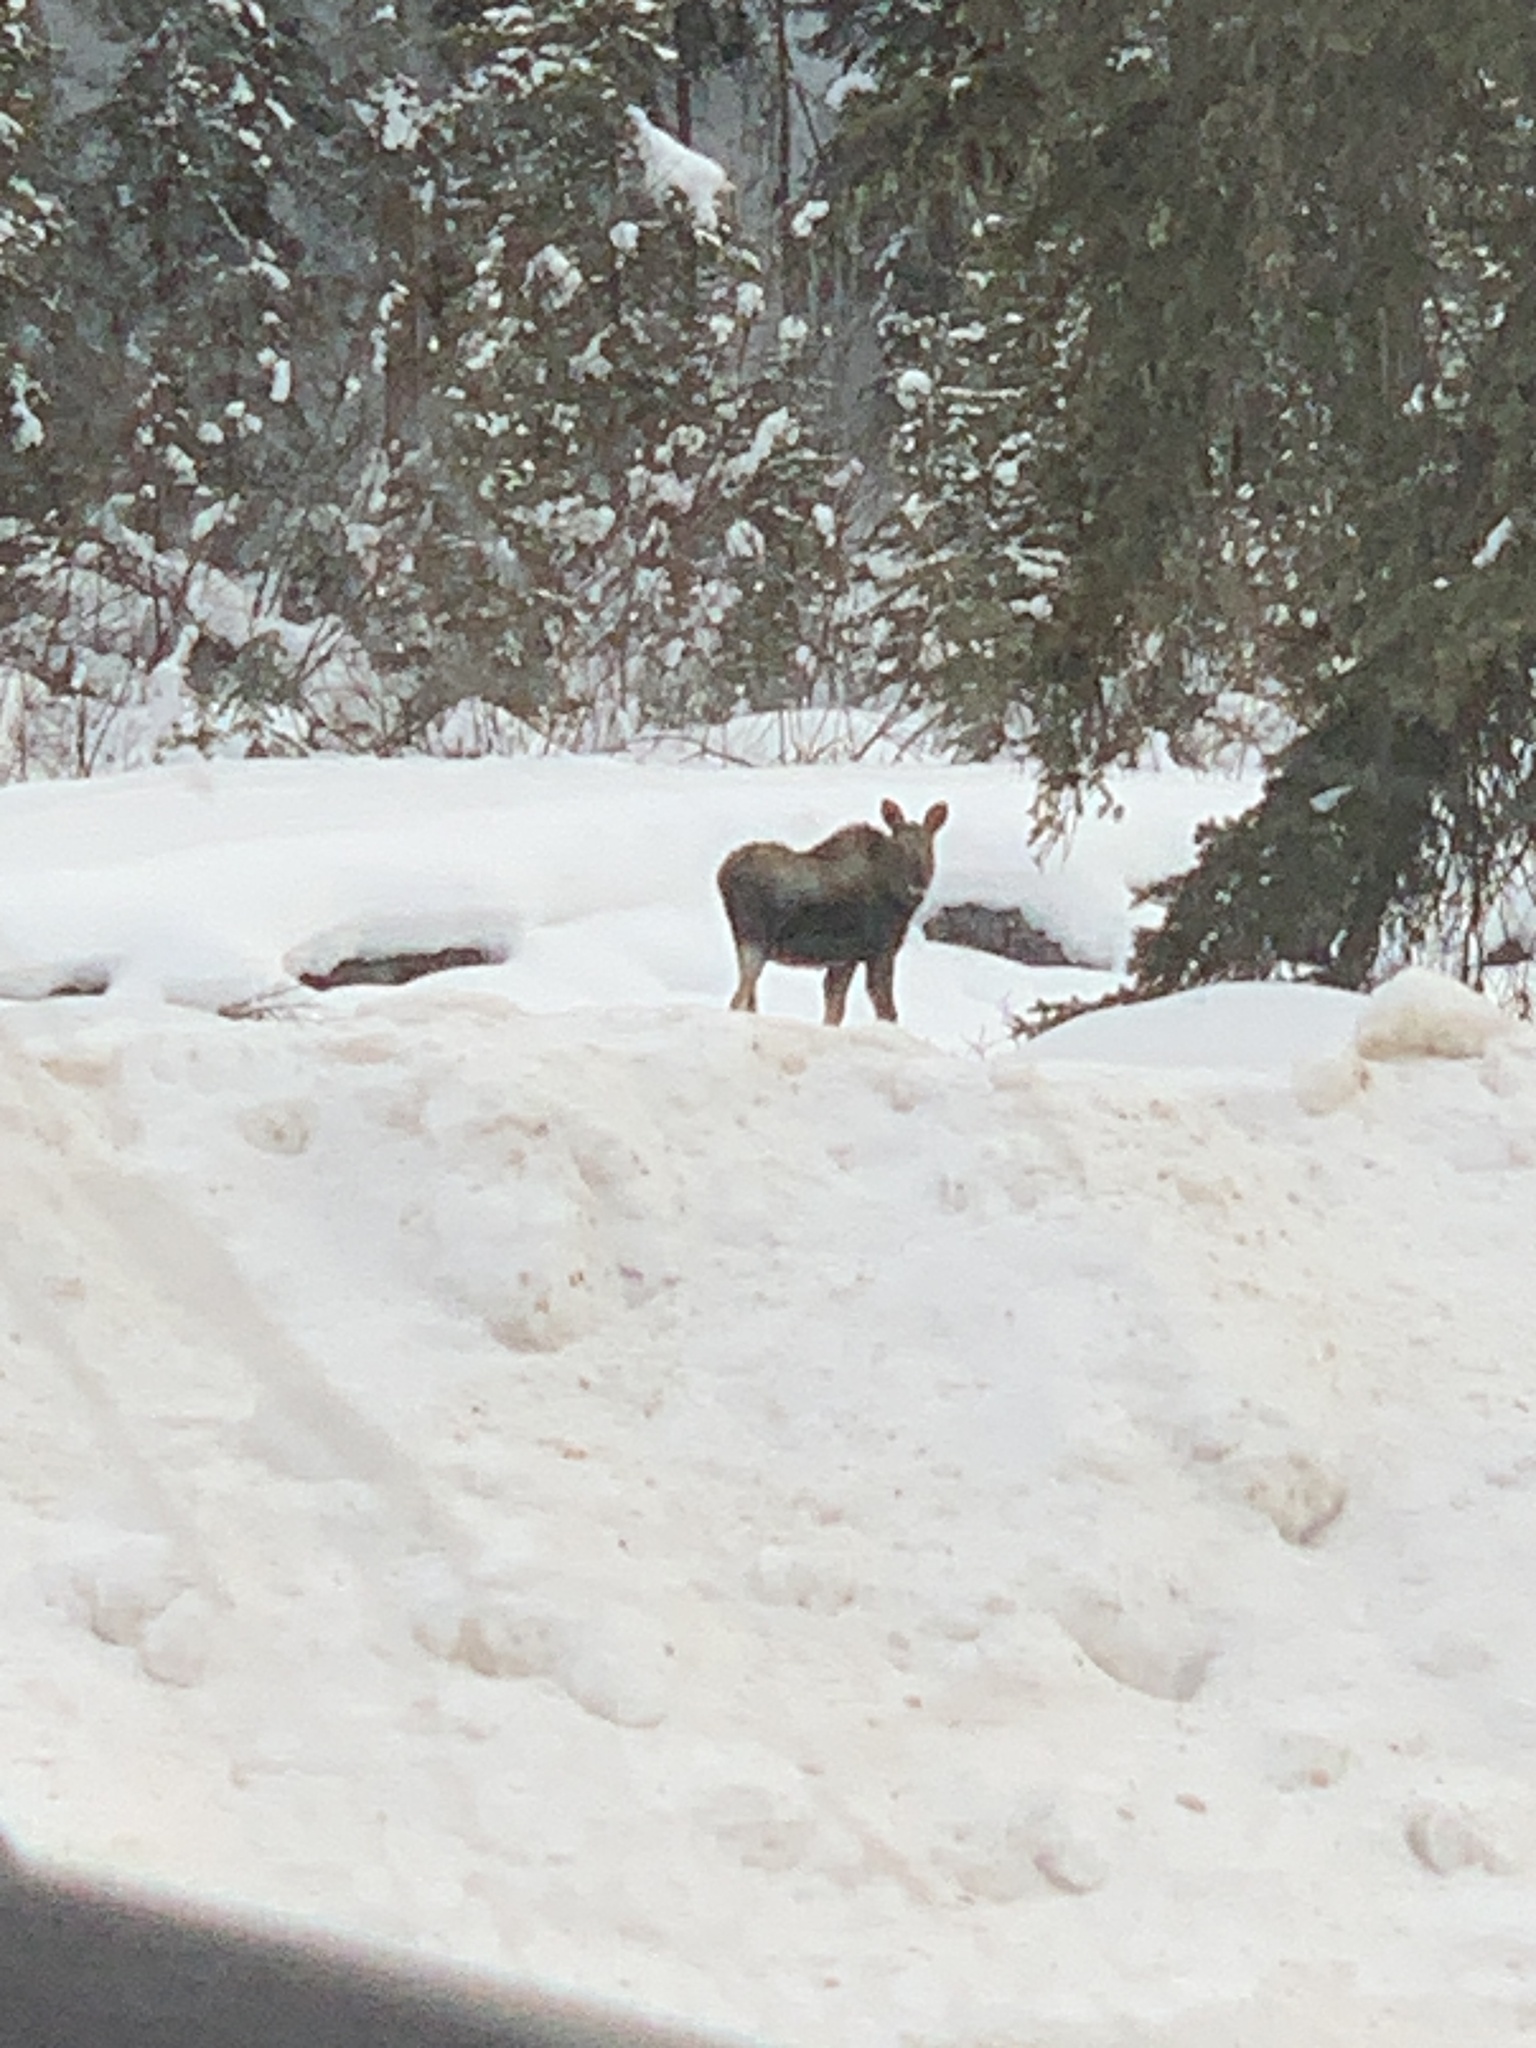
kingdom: Animalia
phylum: Chordata
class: Mammalia
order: Artiodactyla
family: Cervidae
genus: Alces
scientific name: Alces alces
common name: Moose
